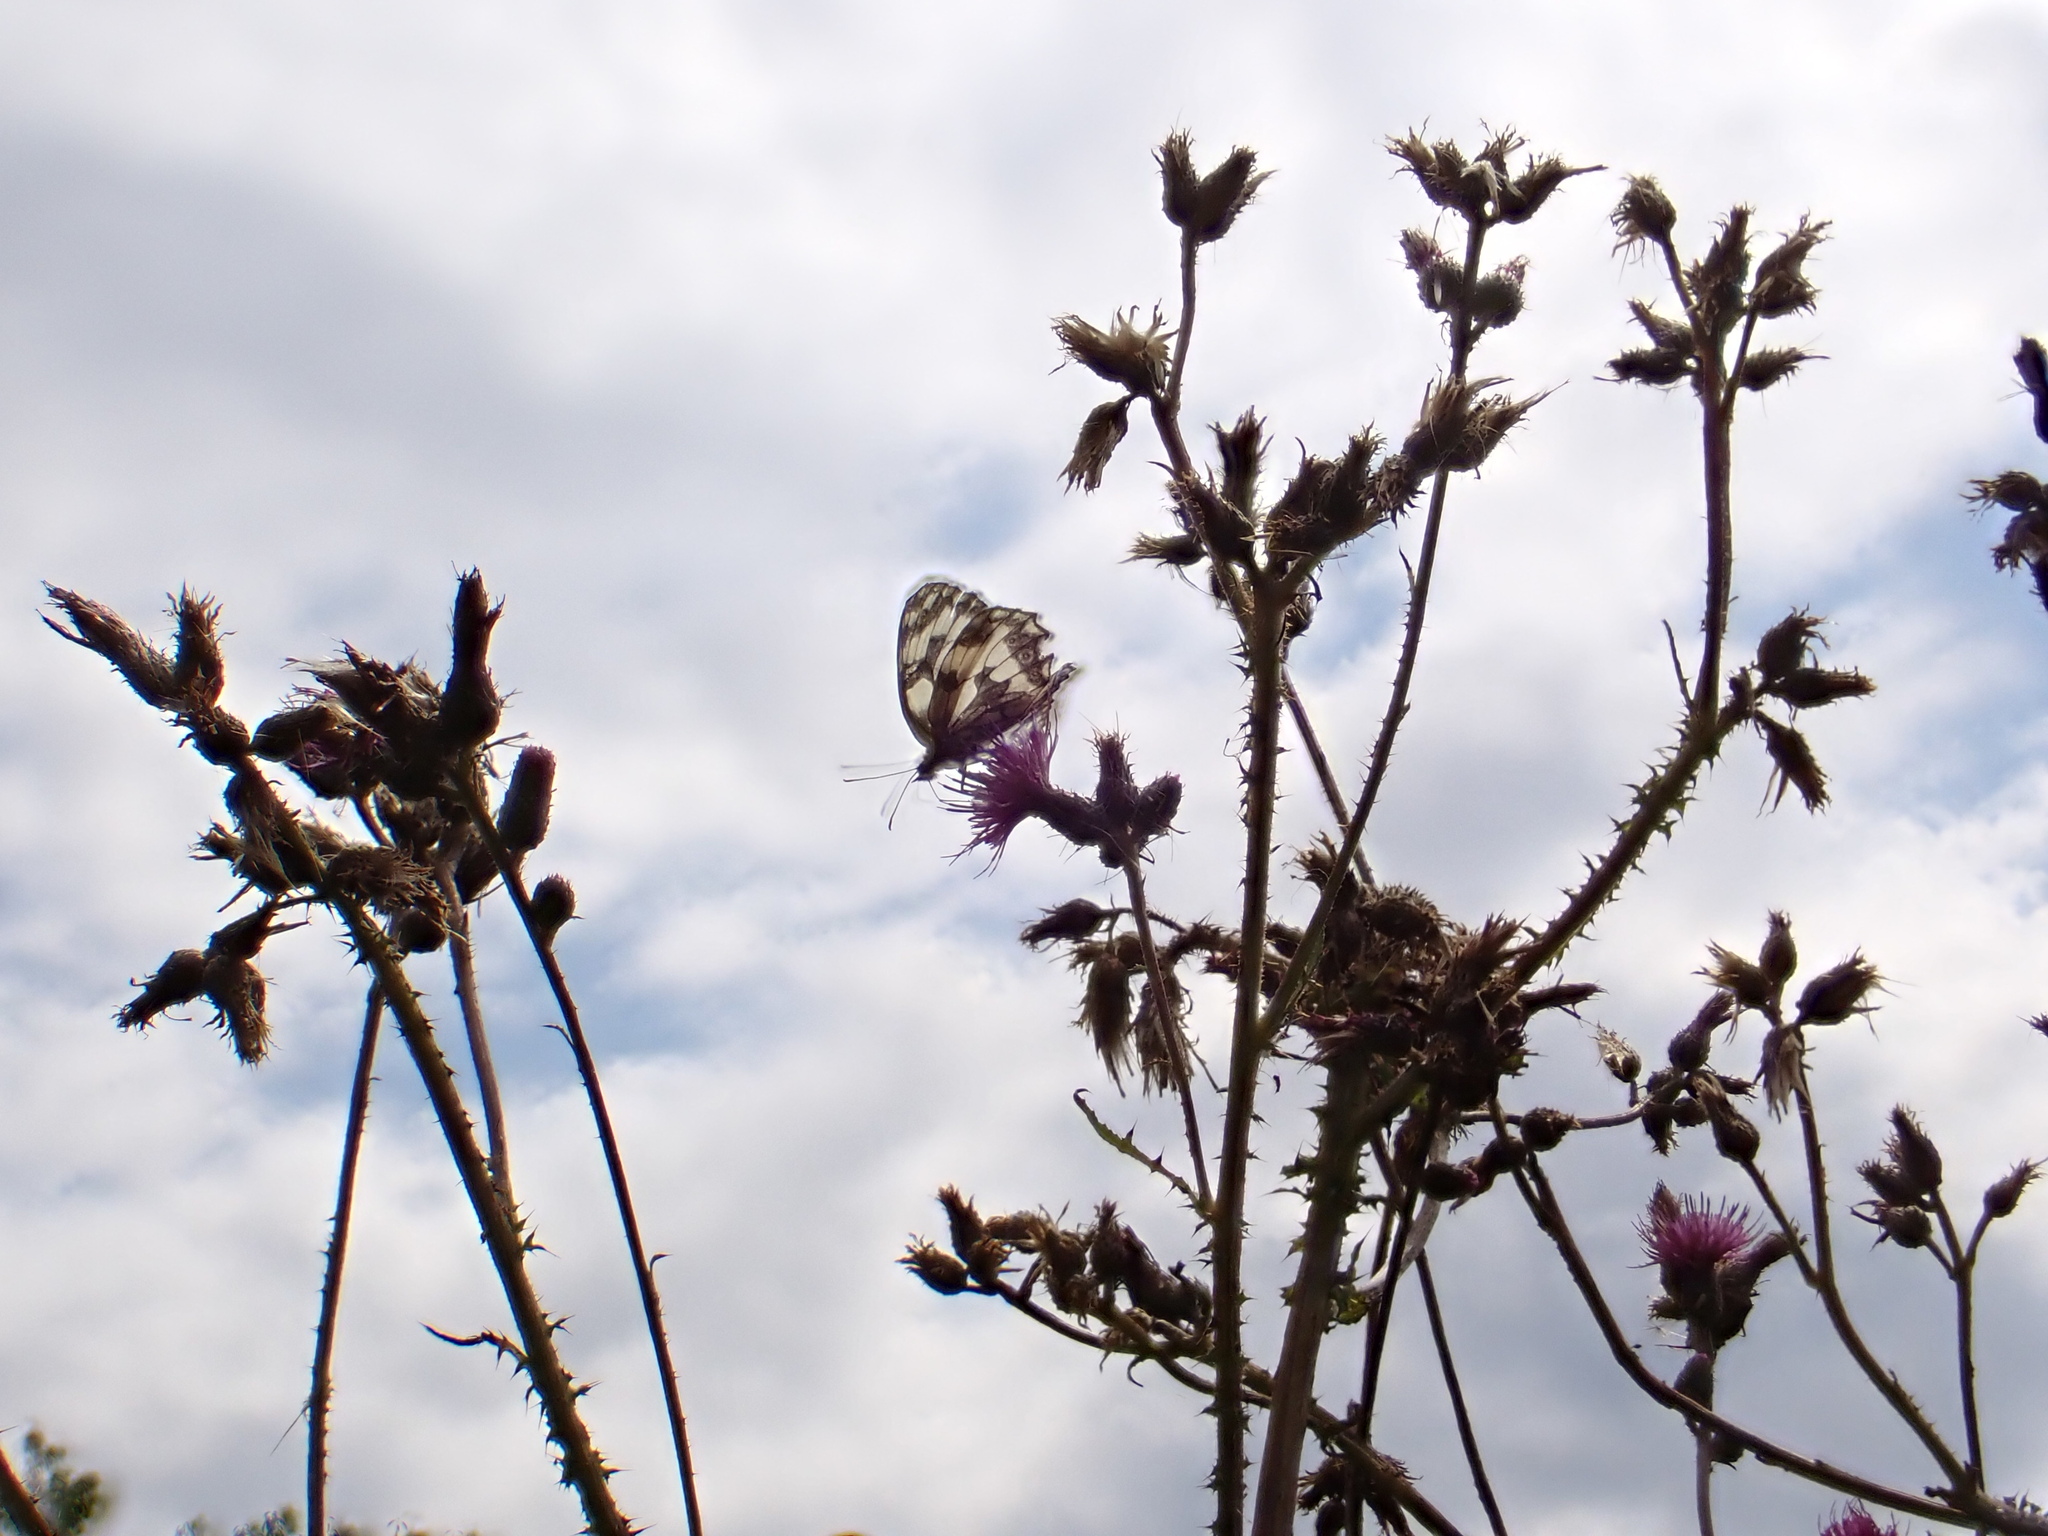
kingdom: Animalia
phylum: Arthropoda
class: Insecta
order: Lepidoptera
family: Nymphalidae
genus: Melanargia
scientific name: Melanargia galathea
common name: Marbled white
